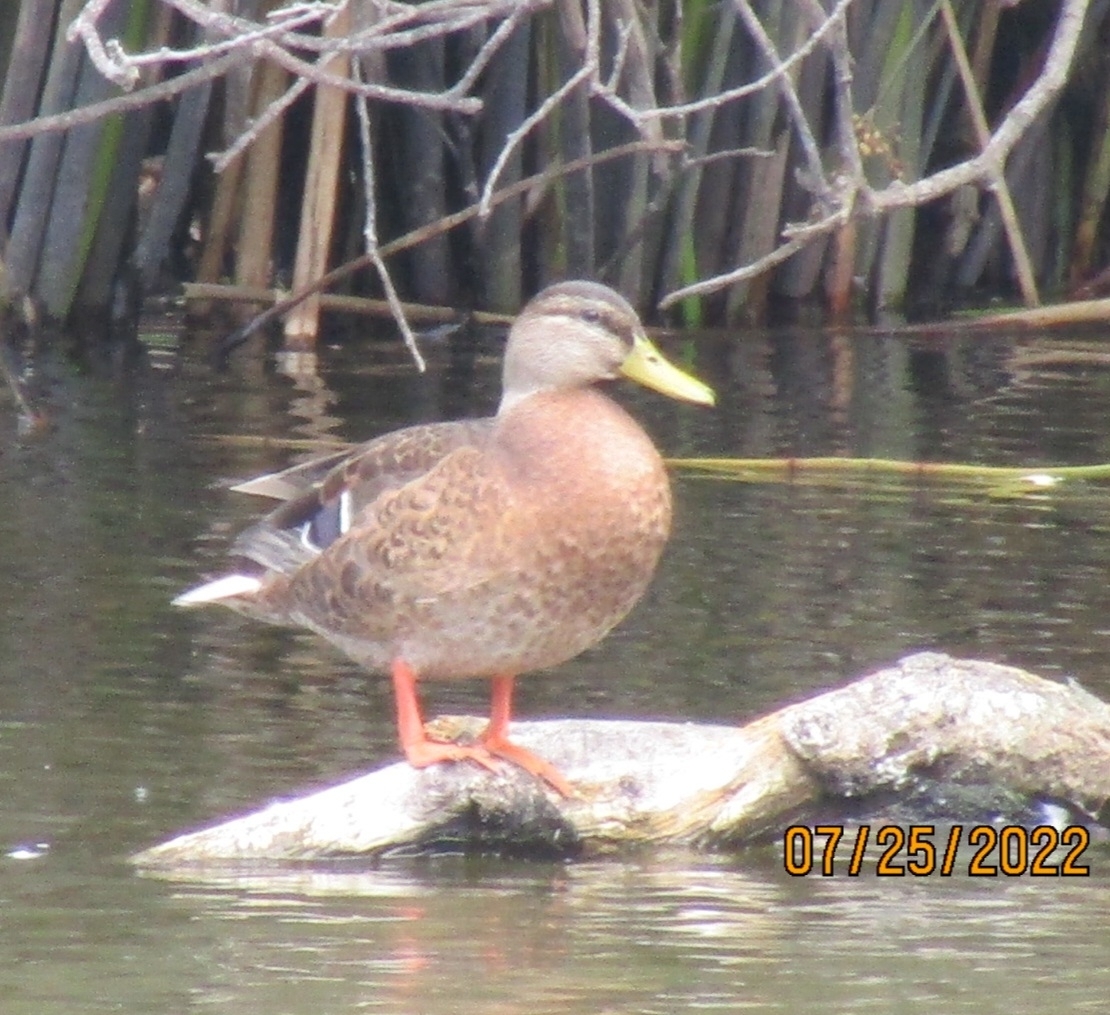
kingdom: Animalia
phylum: Chordata
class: Aves
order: Anseriformes
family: Anatidae
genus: Anas
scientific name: Anas platyrhynchos
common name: Mallard
